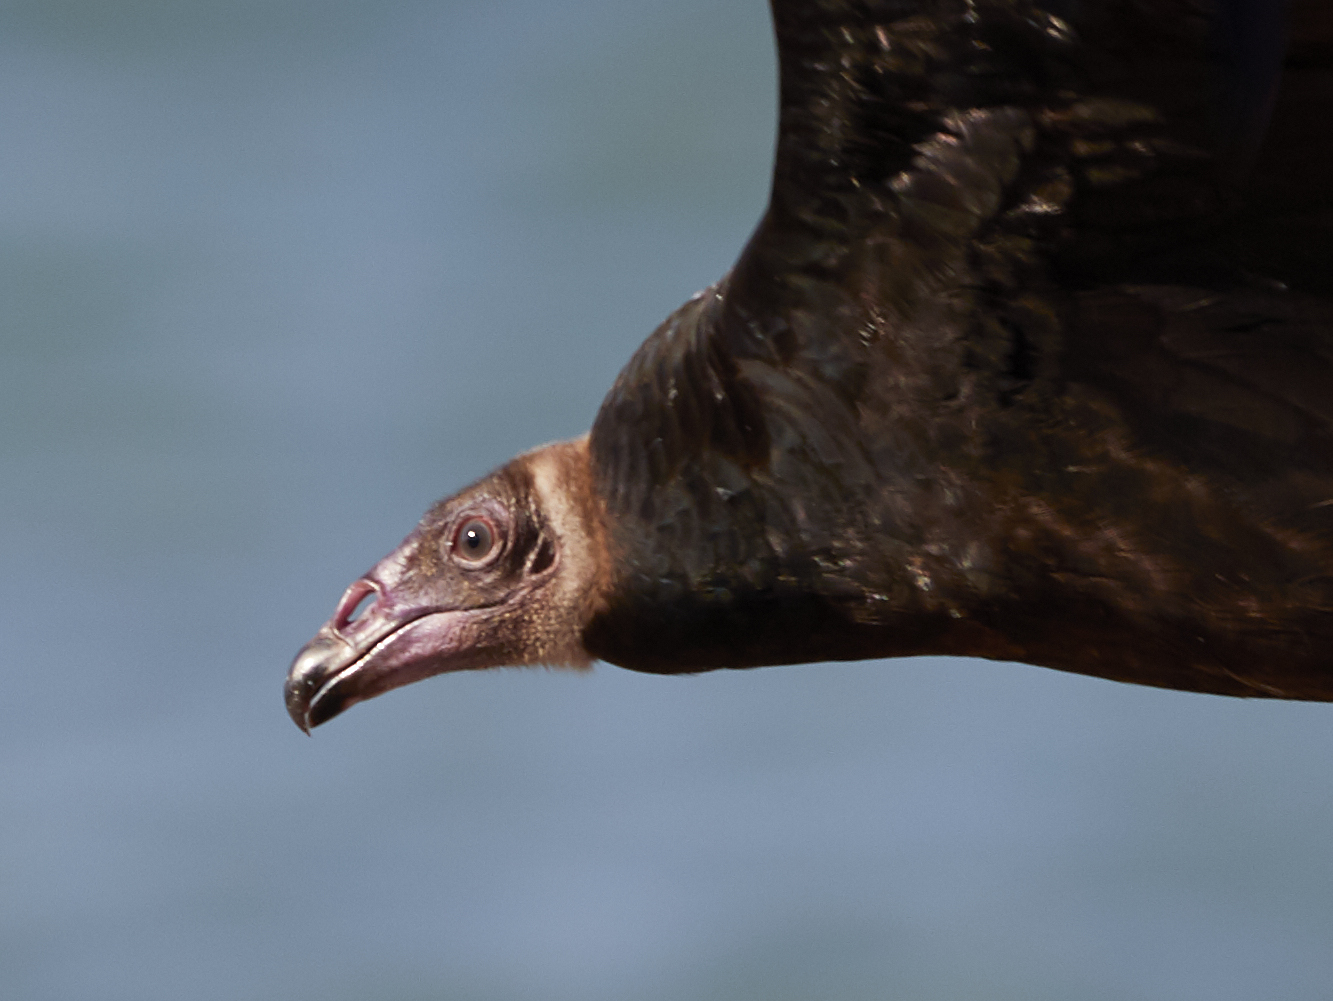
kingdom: Animalia
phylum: Chordata
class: Aves
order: Accipitriformes
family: Cathartidae
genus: Cathartes
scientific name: Cathartes aura
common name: Turkey vulture
